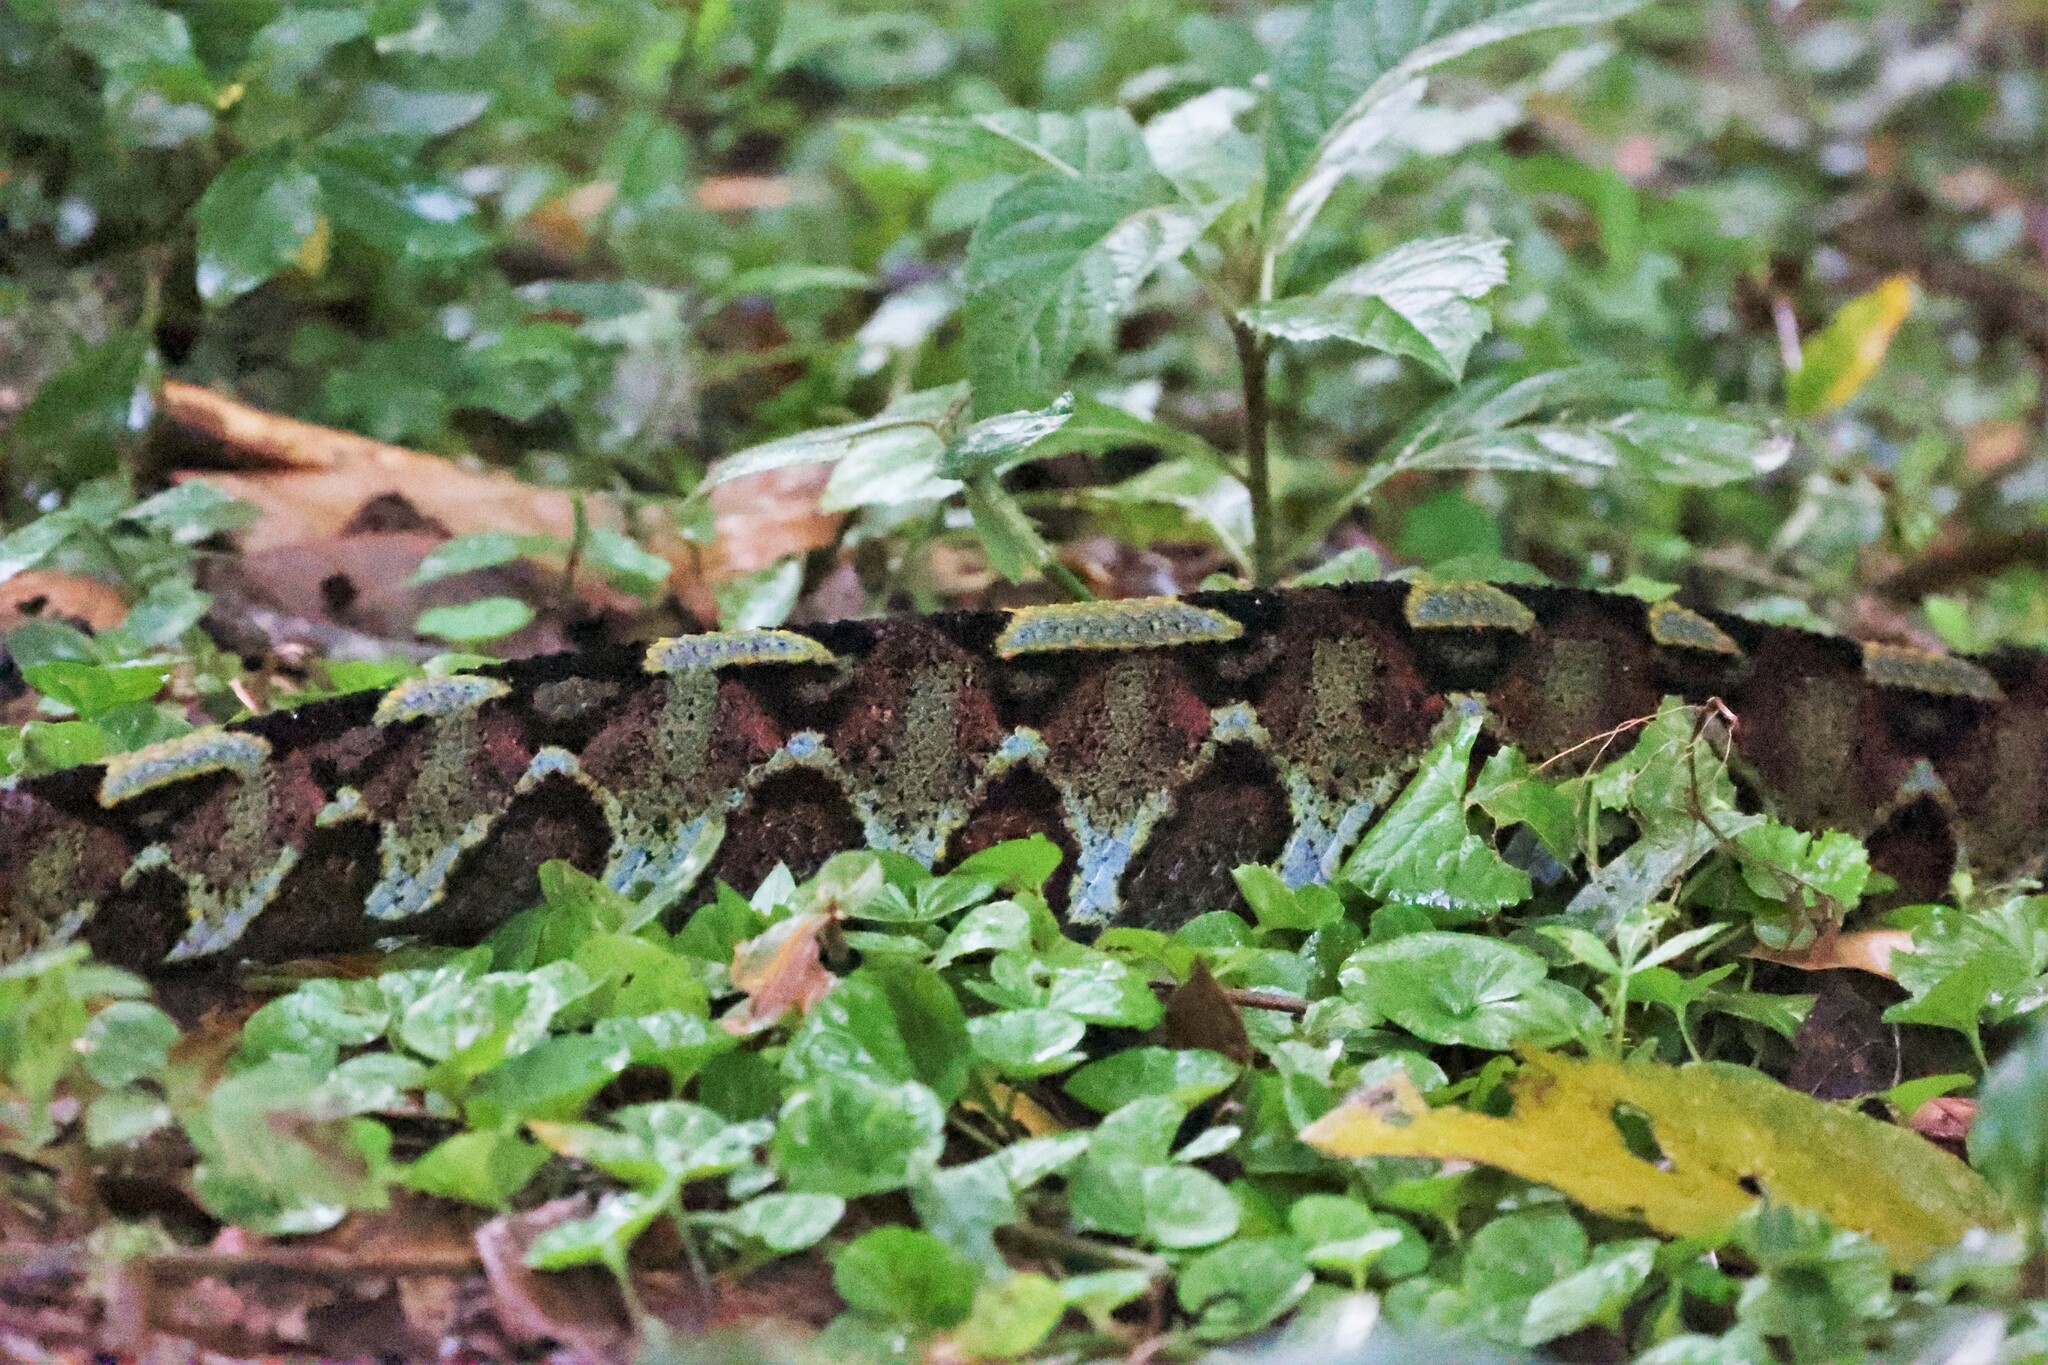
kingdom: Animalia
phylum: Chordata
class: Squamata
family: Viperidae
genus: Bitis
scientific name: Bitis nasicornis
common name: Rhinoceros viper
